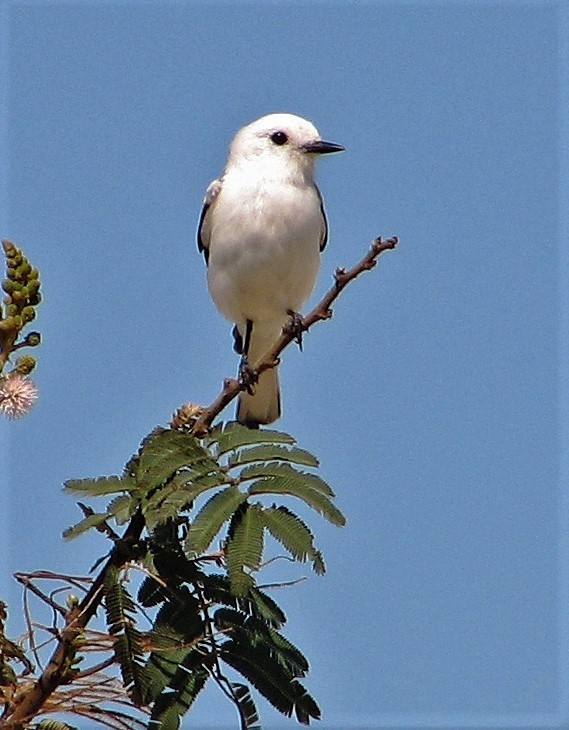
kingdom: Animalia
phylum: Chordata
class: Aves
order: Passeriformes
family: Tyrannidae
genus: Xolmis
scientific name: Xolmis irupero
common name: White monjita
